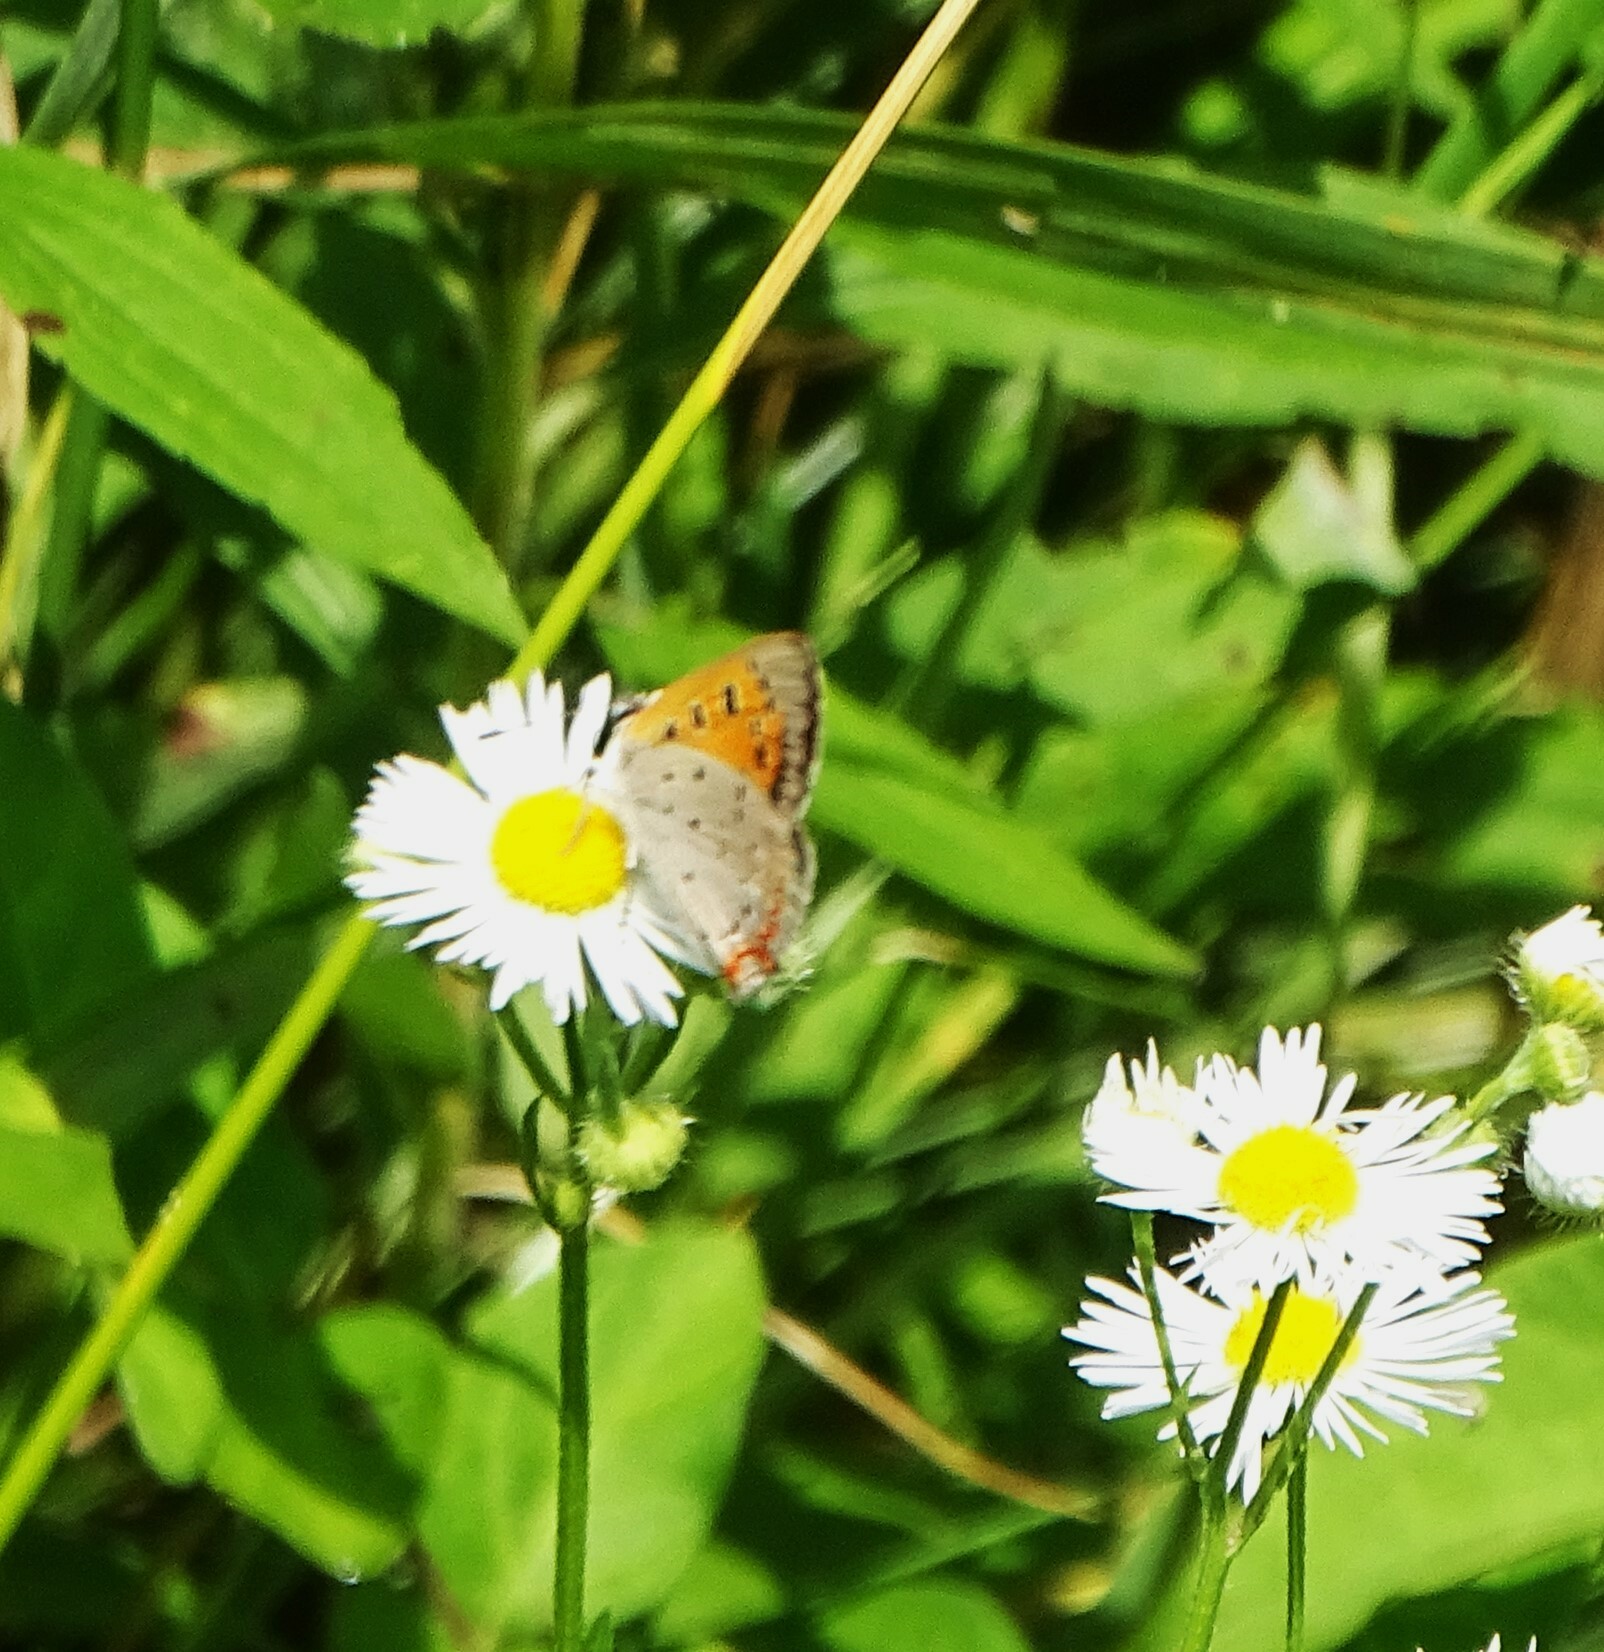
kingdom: Animalia
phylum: Arthropoda
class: Insecta
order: Lepidoptera
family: Lycaenidae
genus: Lycaena
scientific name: Lycaena hypophlaeas
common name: American copper
